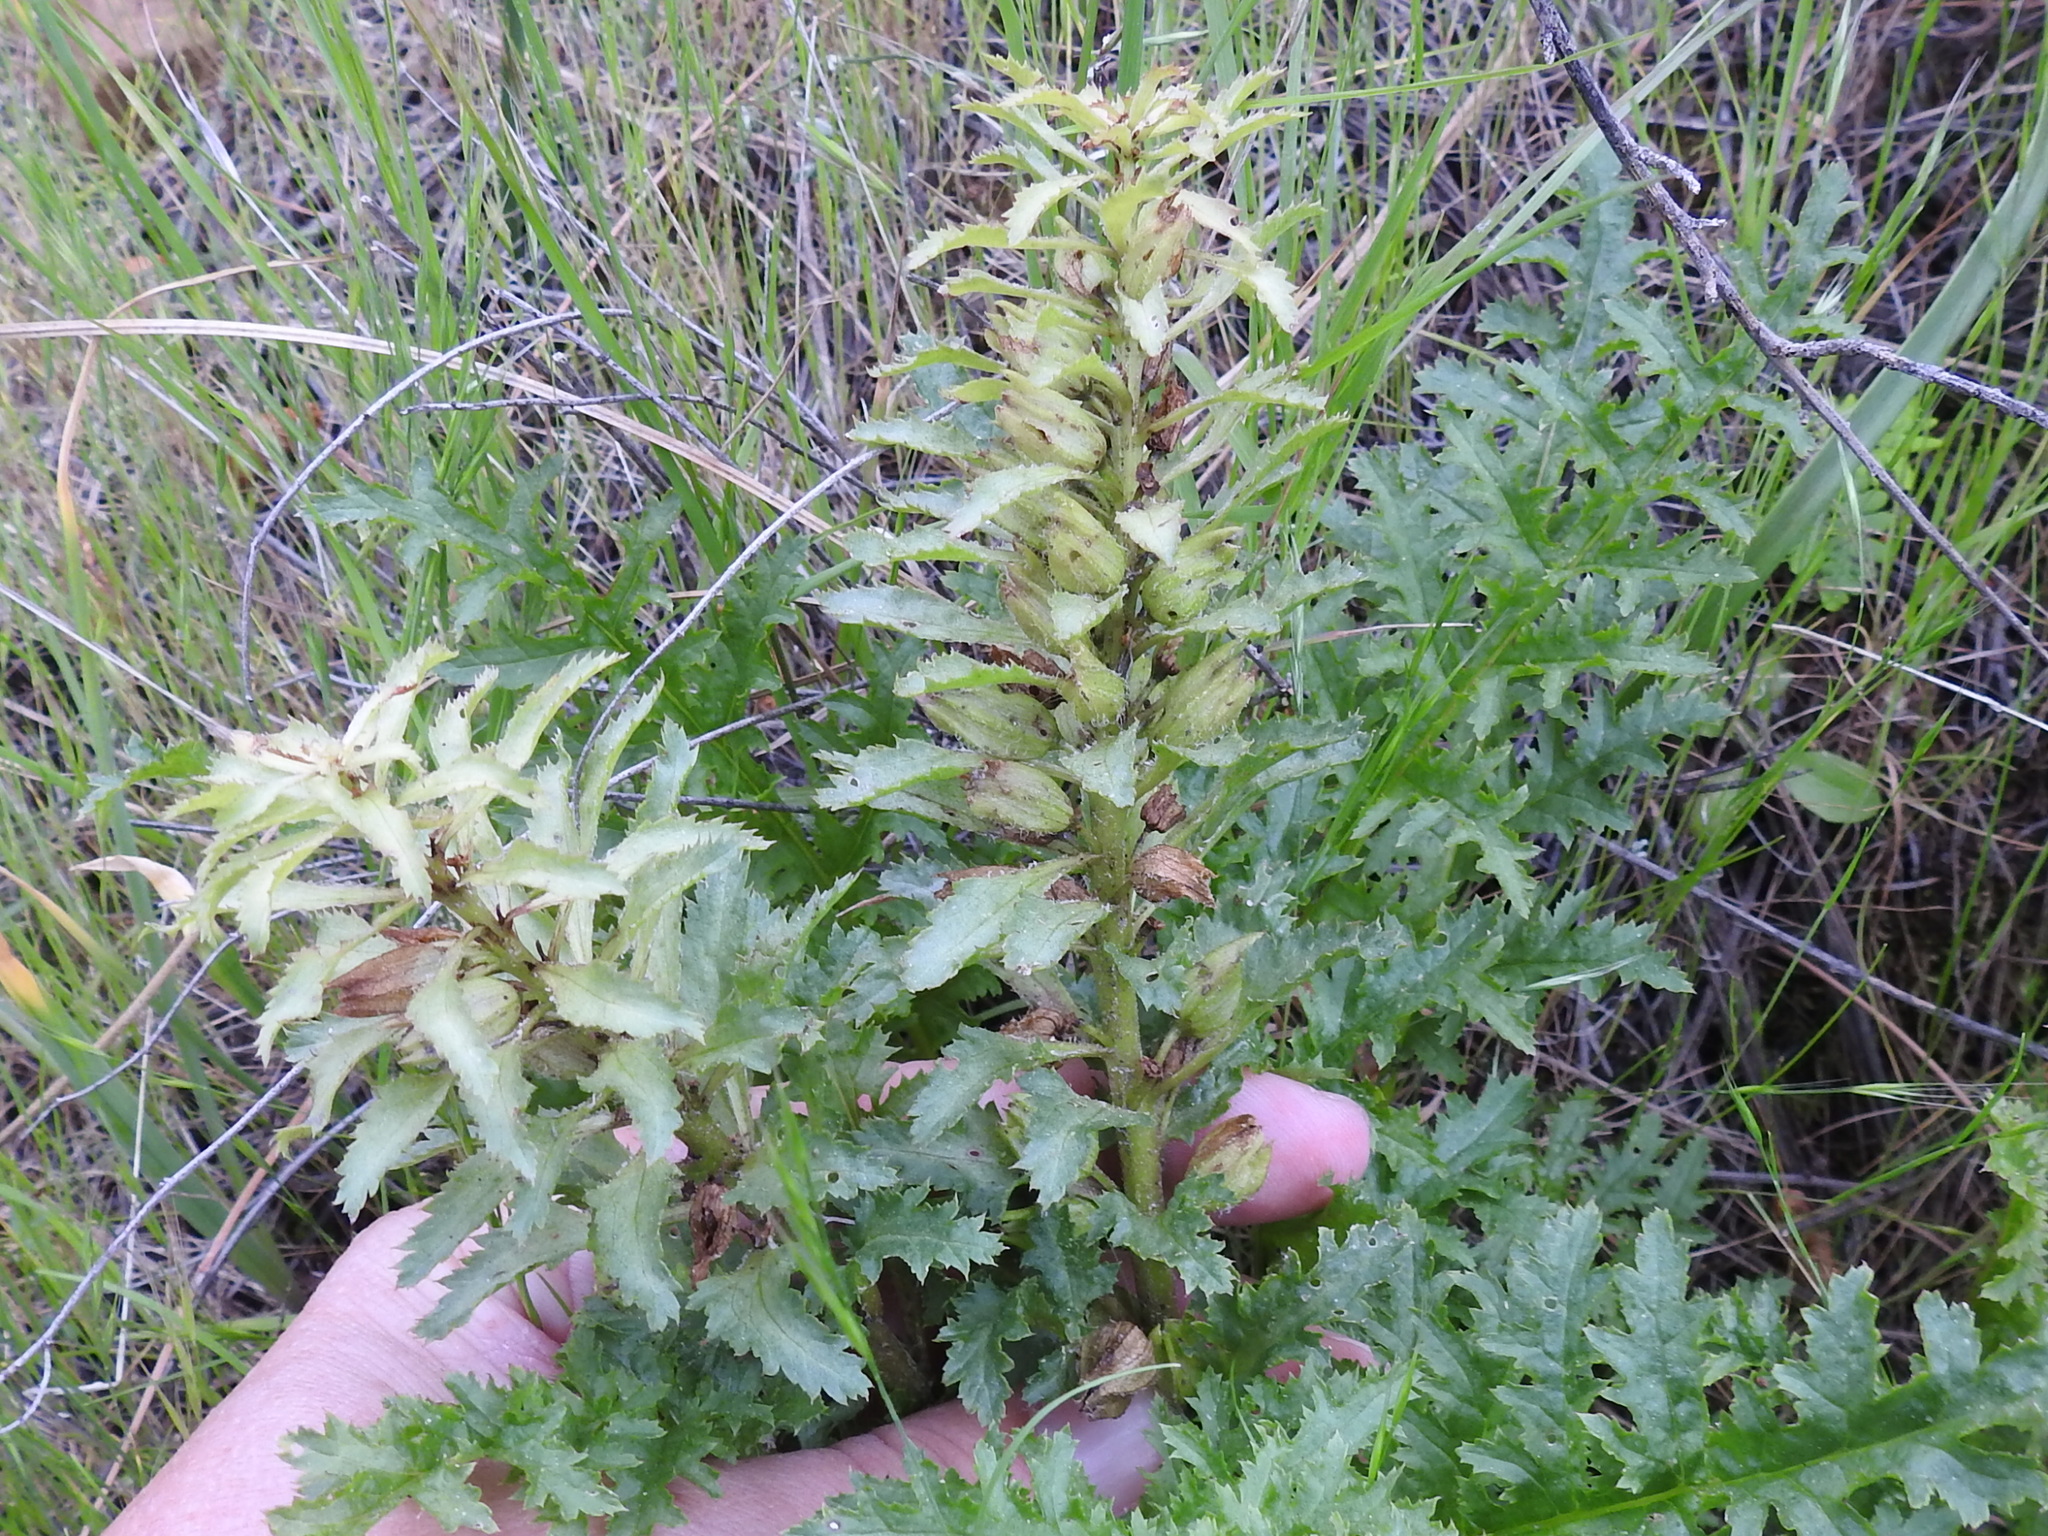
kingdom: Plantae
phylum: Tracheophyta
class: Magnoliopsida
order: Lamiales
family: Orobanchaceae
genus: Pedicularis
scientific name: Pedicularis densiflora
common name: Indian warrior
